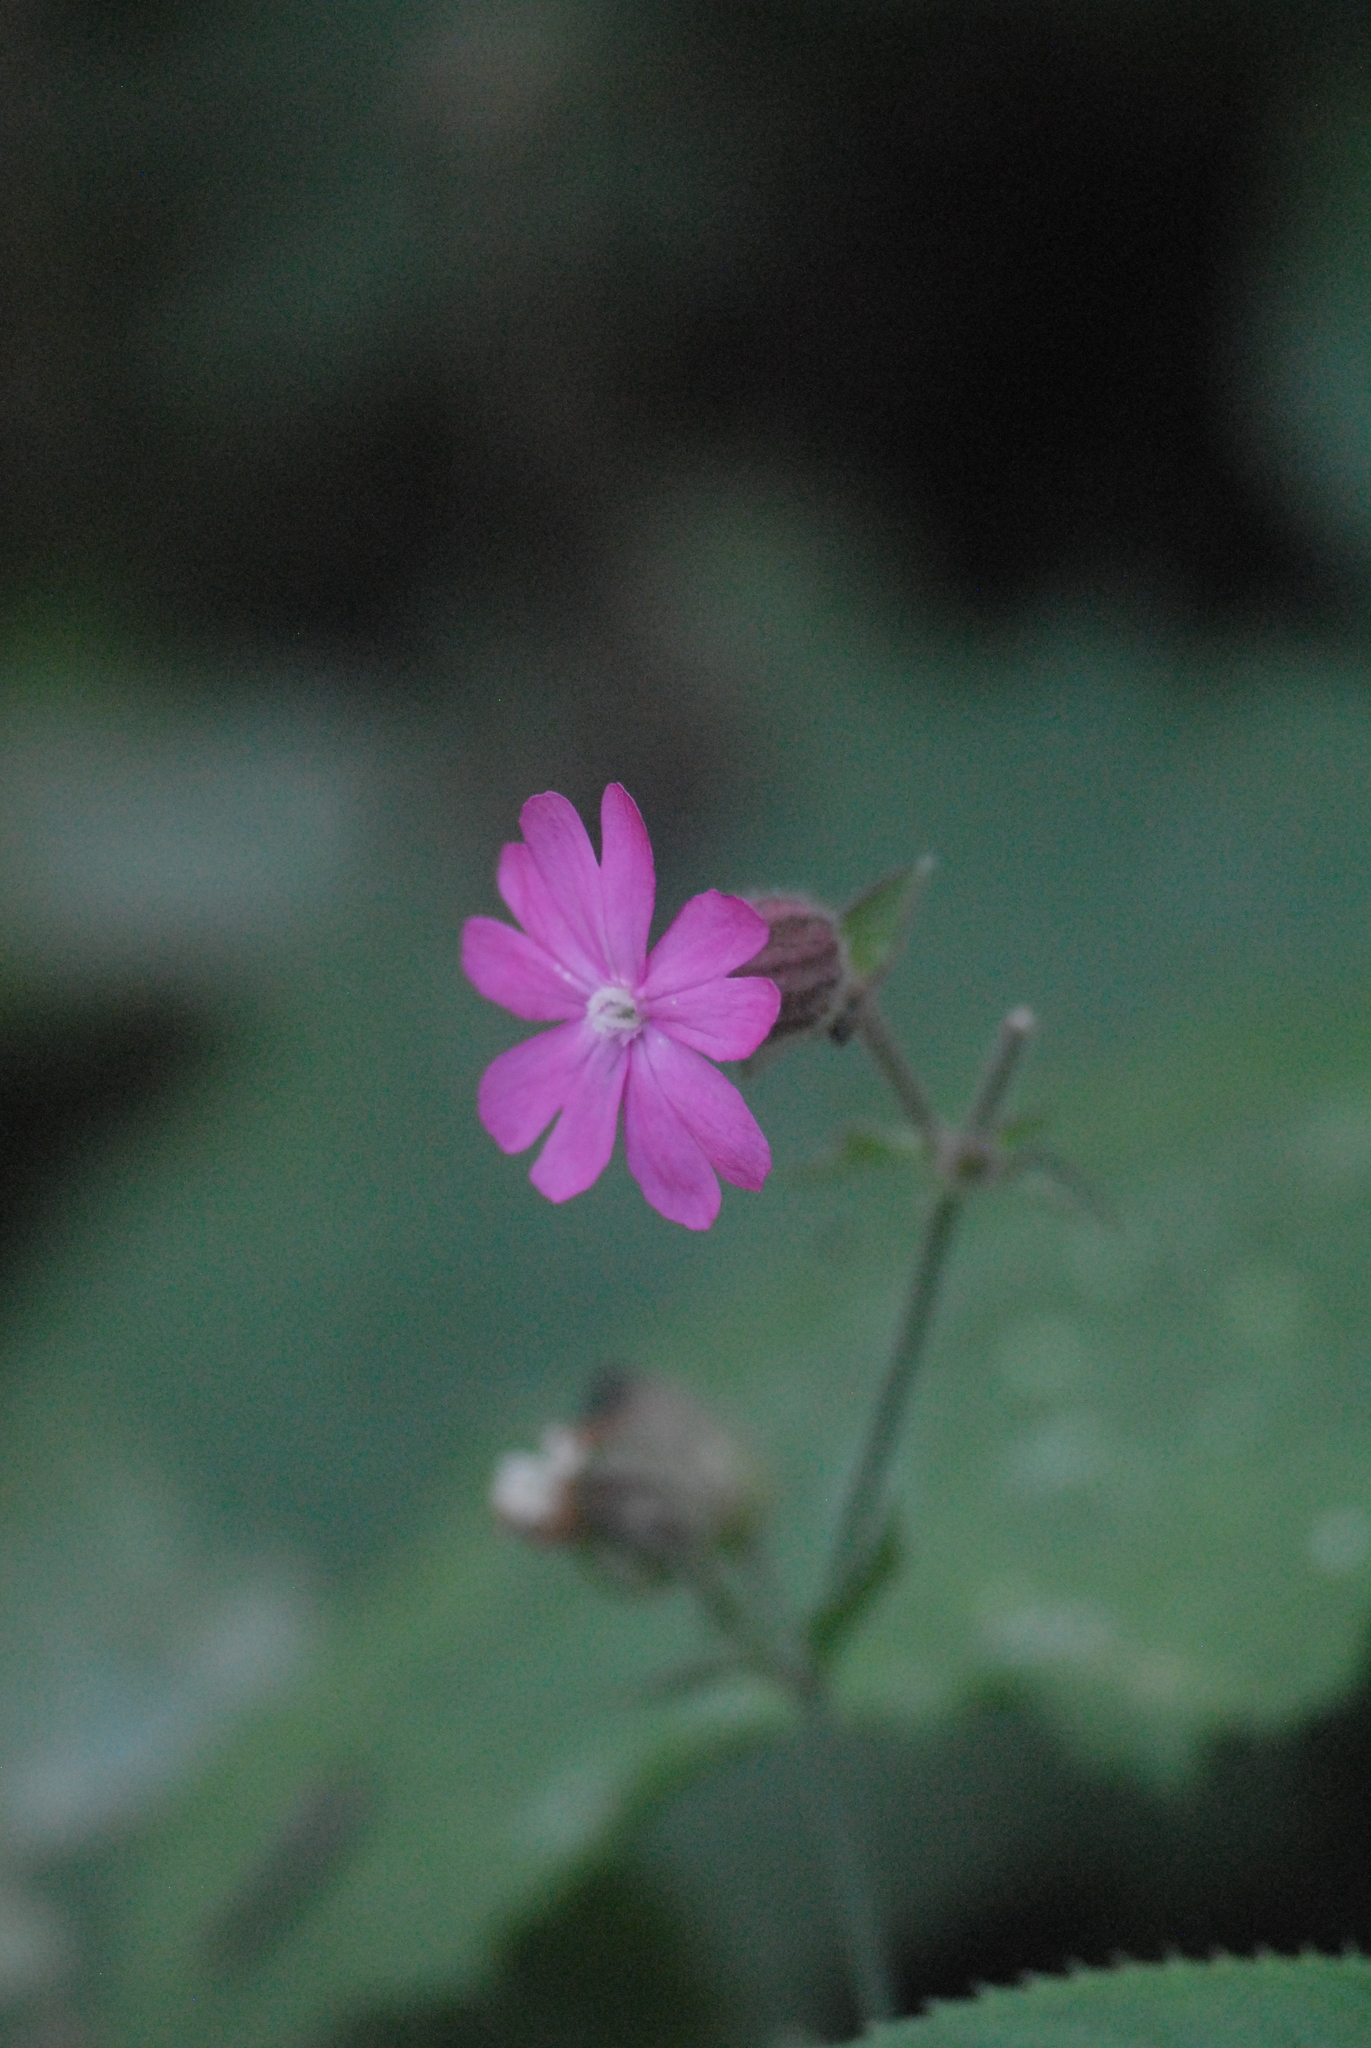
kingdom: Plantae
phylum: Tracheophyta
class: Magnoliopsida
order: Caryophyllales
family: Caryophyllaceae
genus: Silene
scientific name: Silene dioica
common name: Red campion
